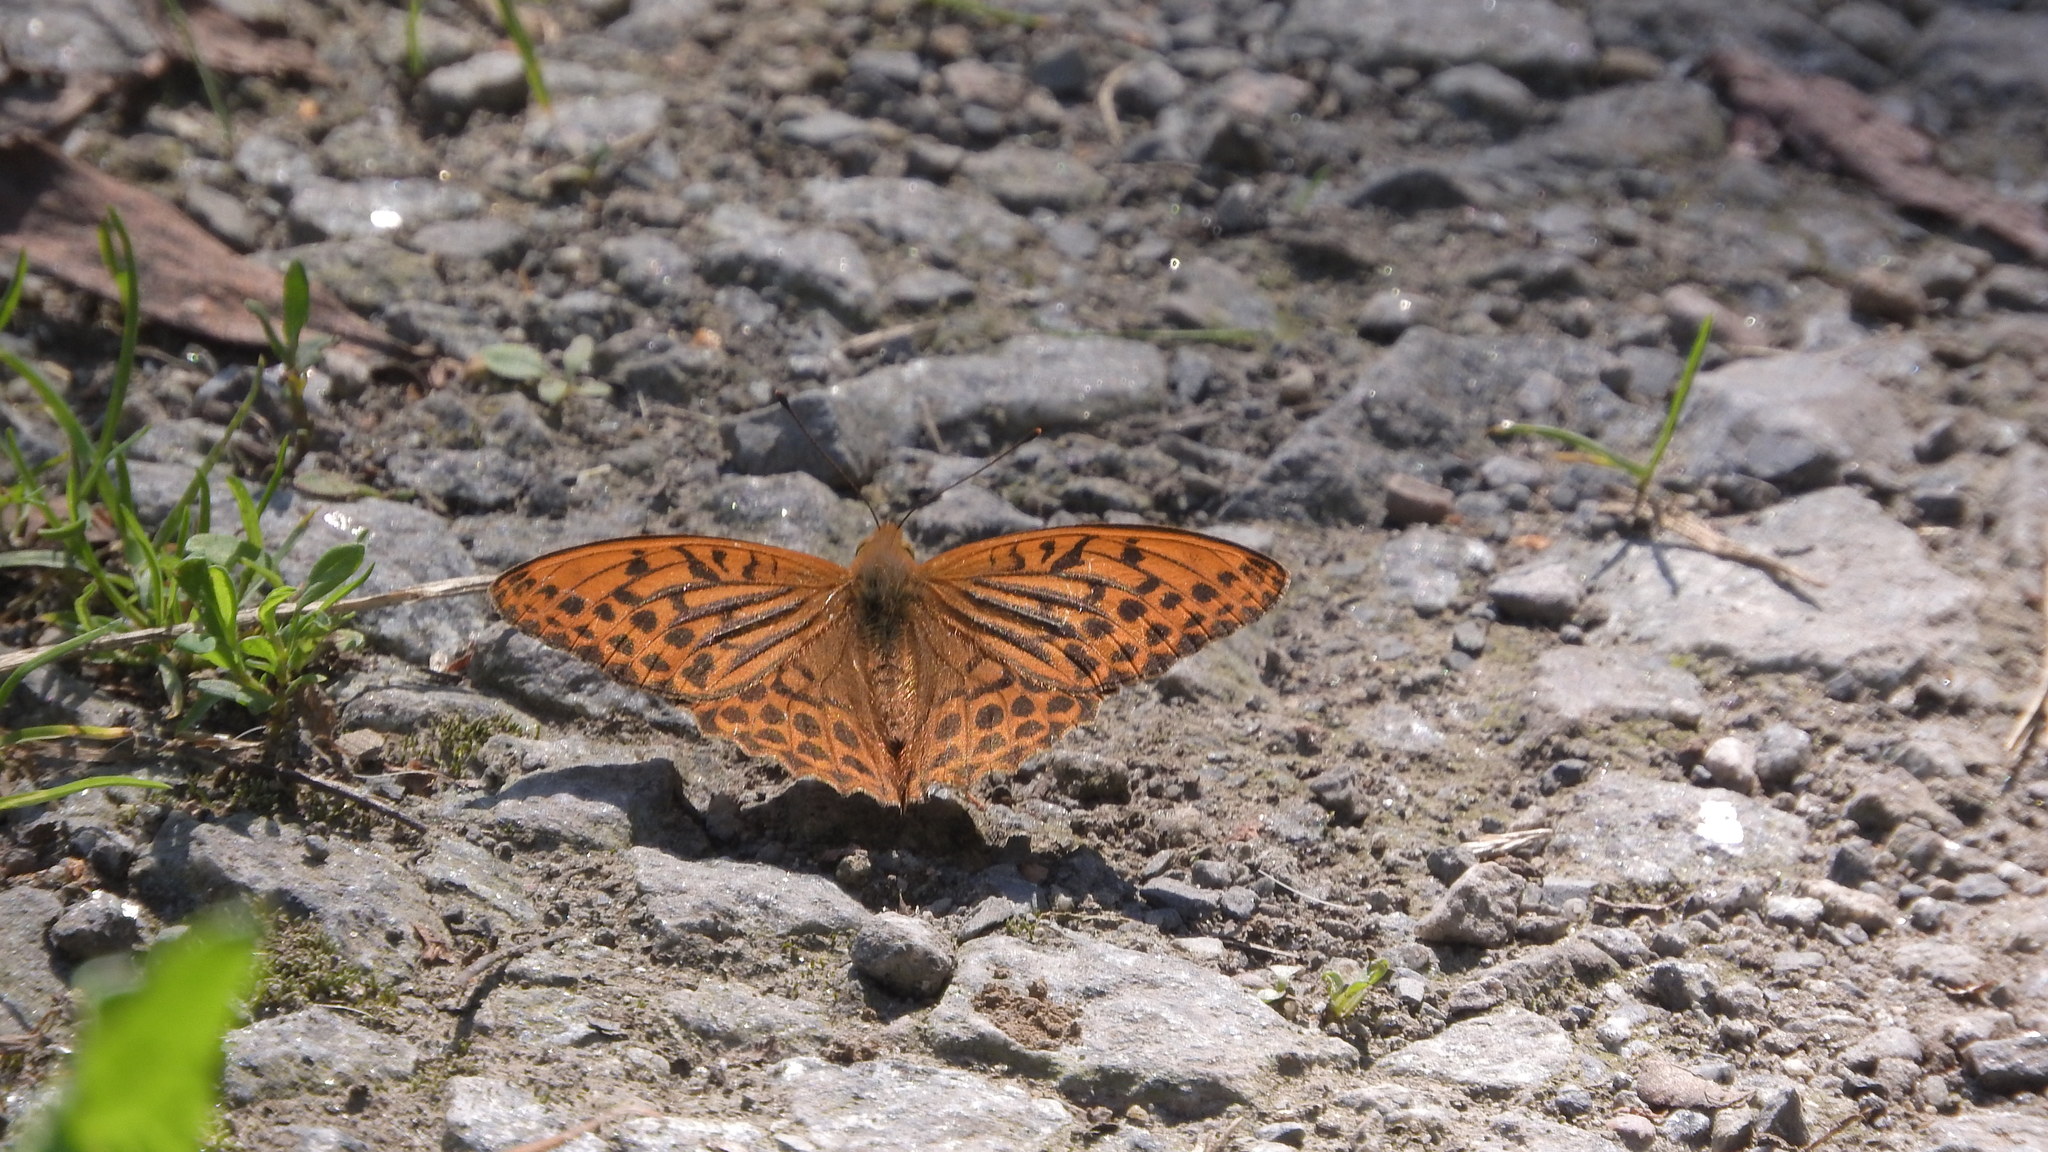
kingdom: Animalia
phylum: Arthropoda
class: Insecta
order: Lepidoptera
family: Nymphalidae
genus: Argynnis
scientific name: Argynnis paphia
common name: Silver-washed fritillary
